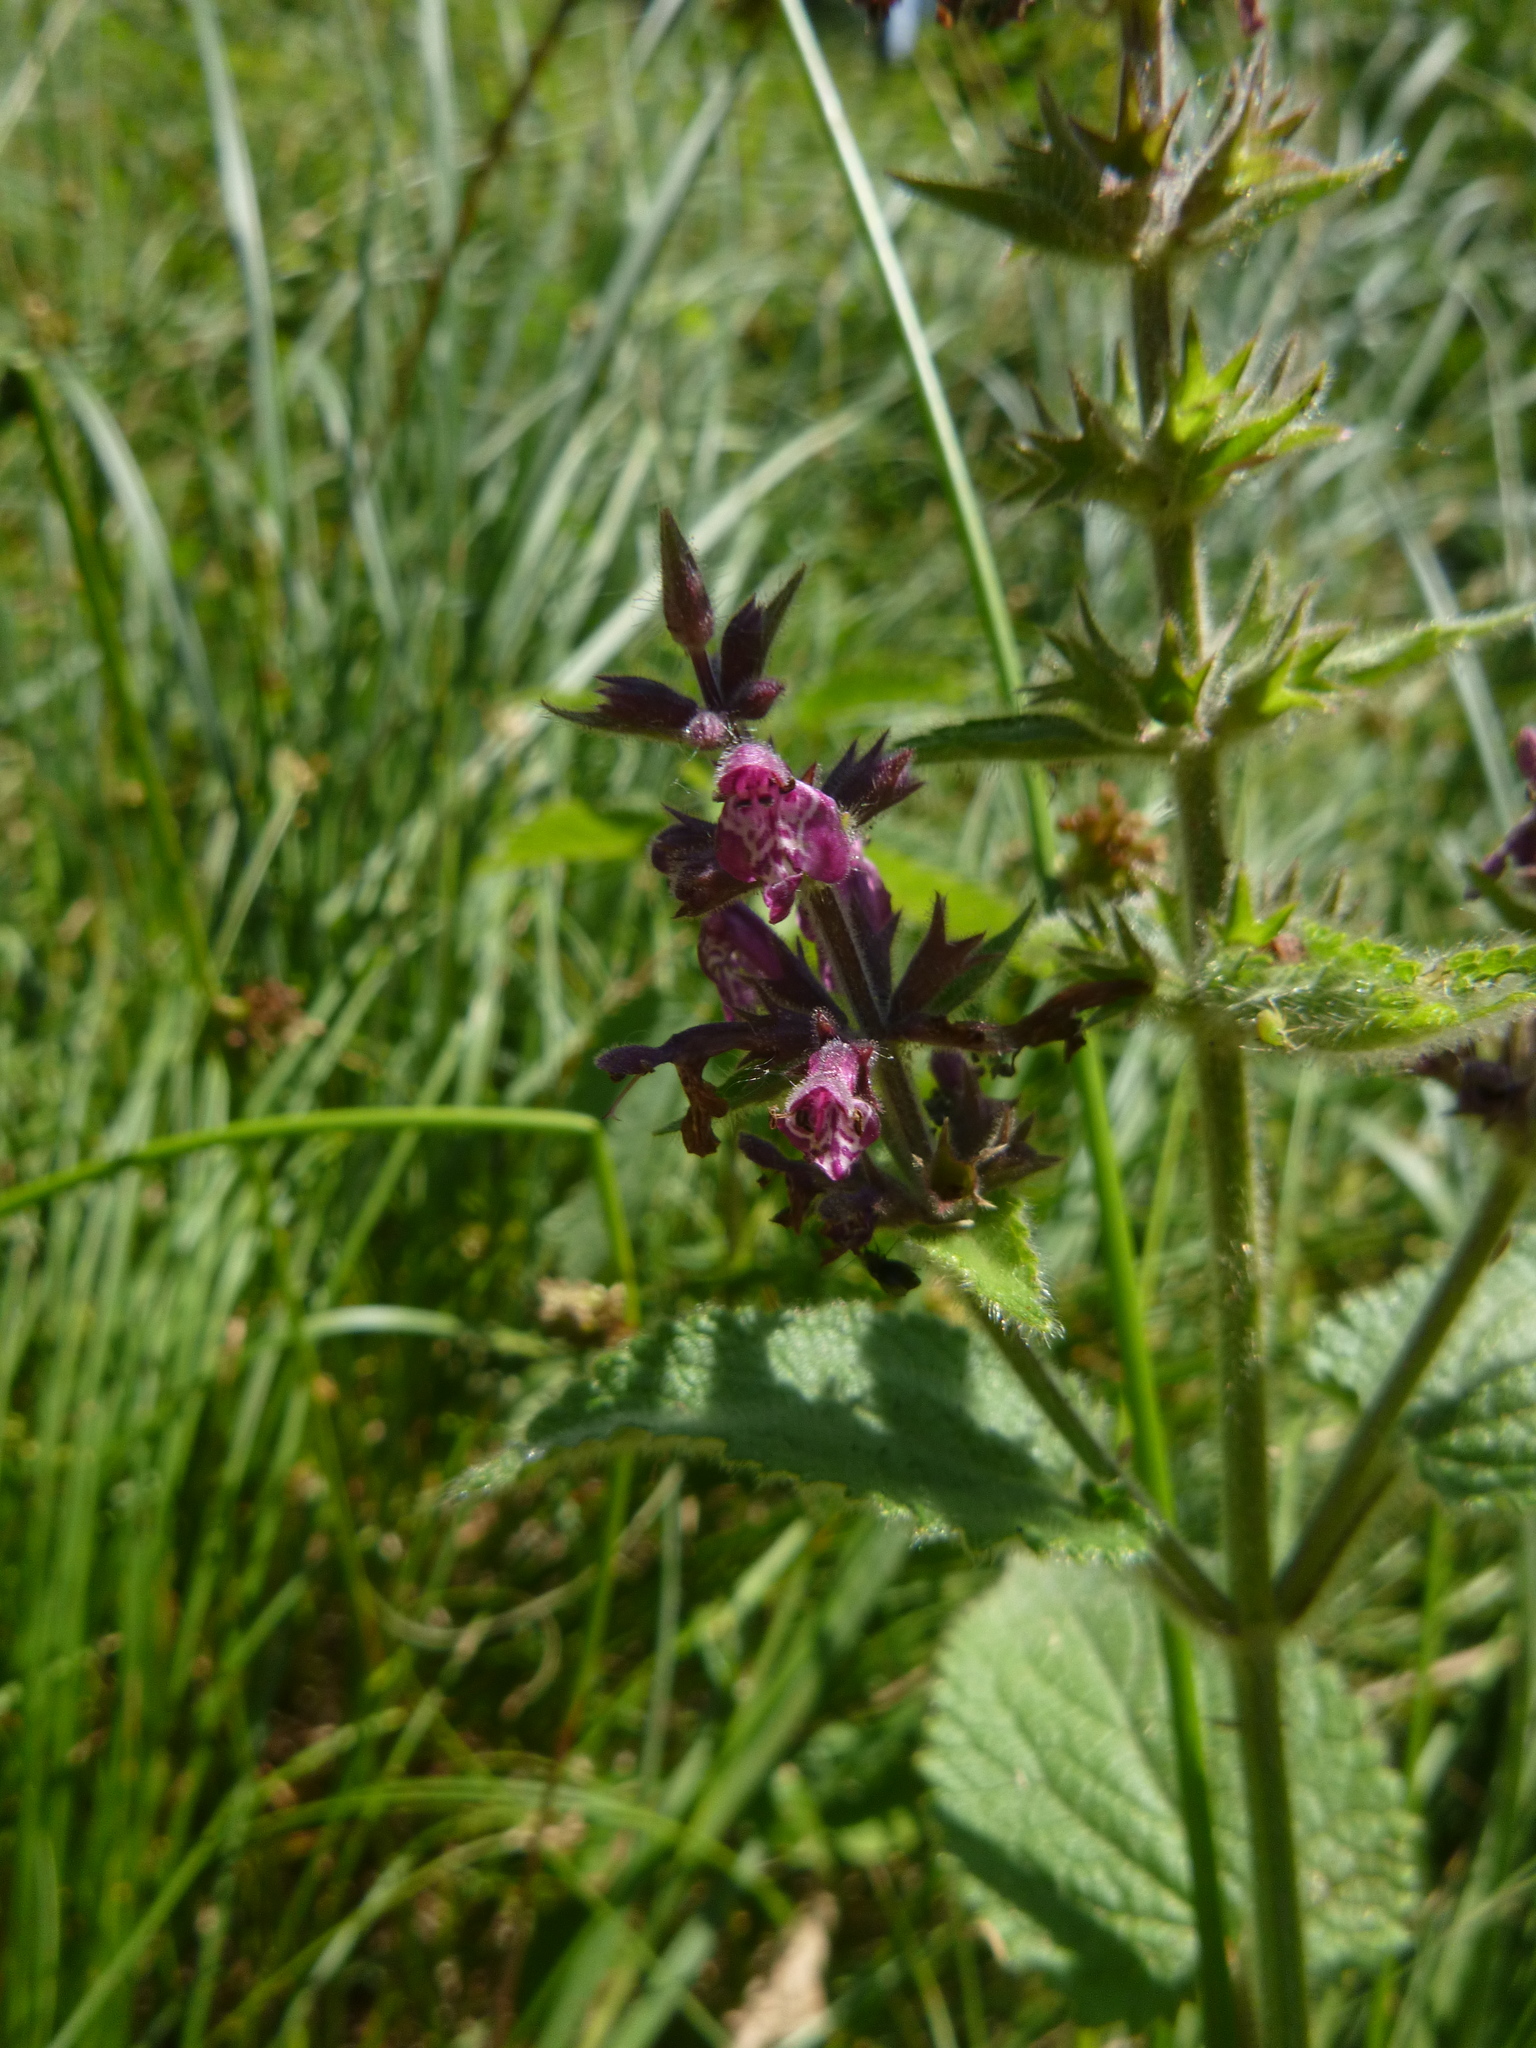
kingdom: Plantae
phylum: Tracheophyta
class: Magnoliopsida
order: Lamiales
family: Lamiaceae
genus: Stachys
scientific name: Stachys sylvatica
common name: Hedge woundwort
